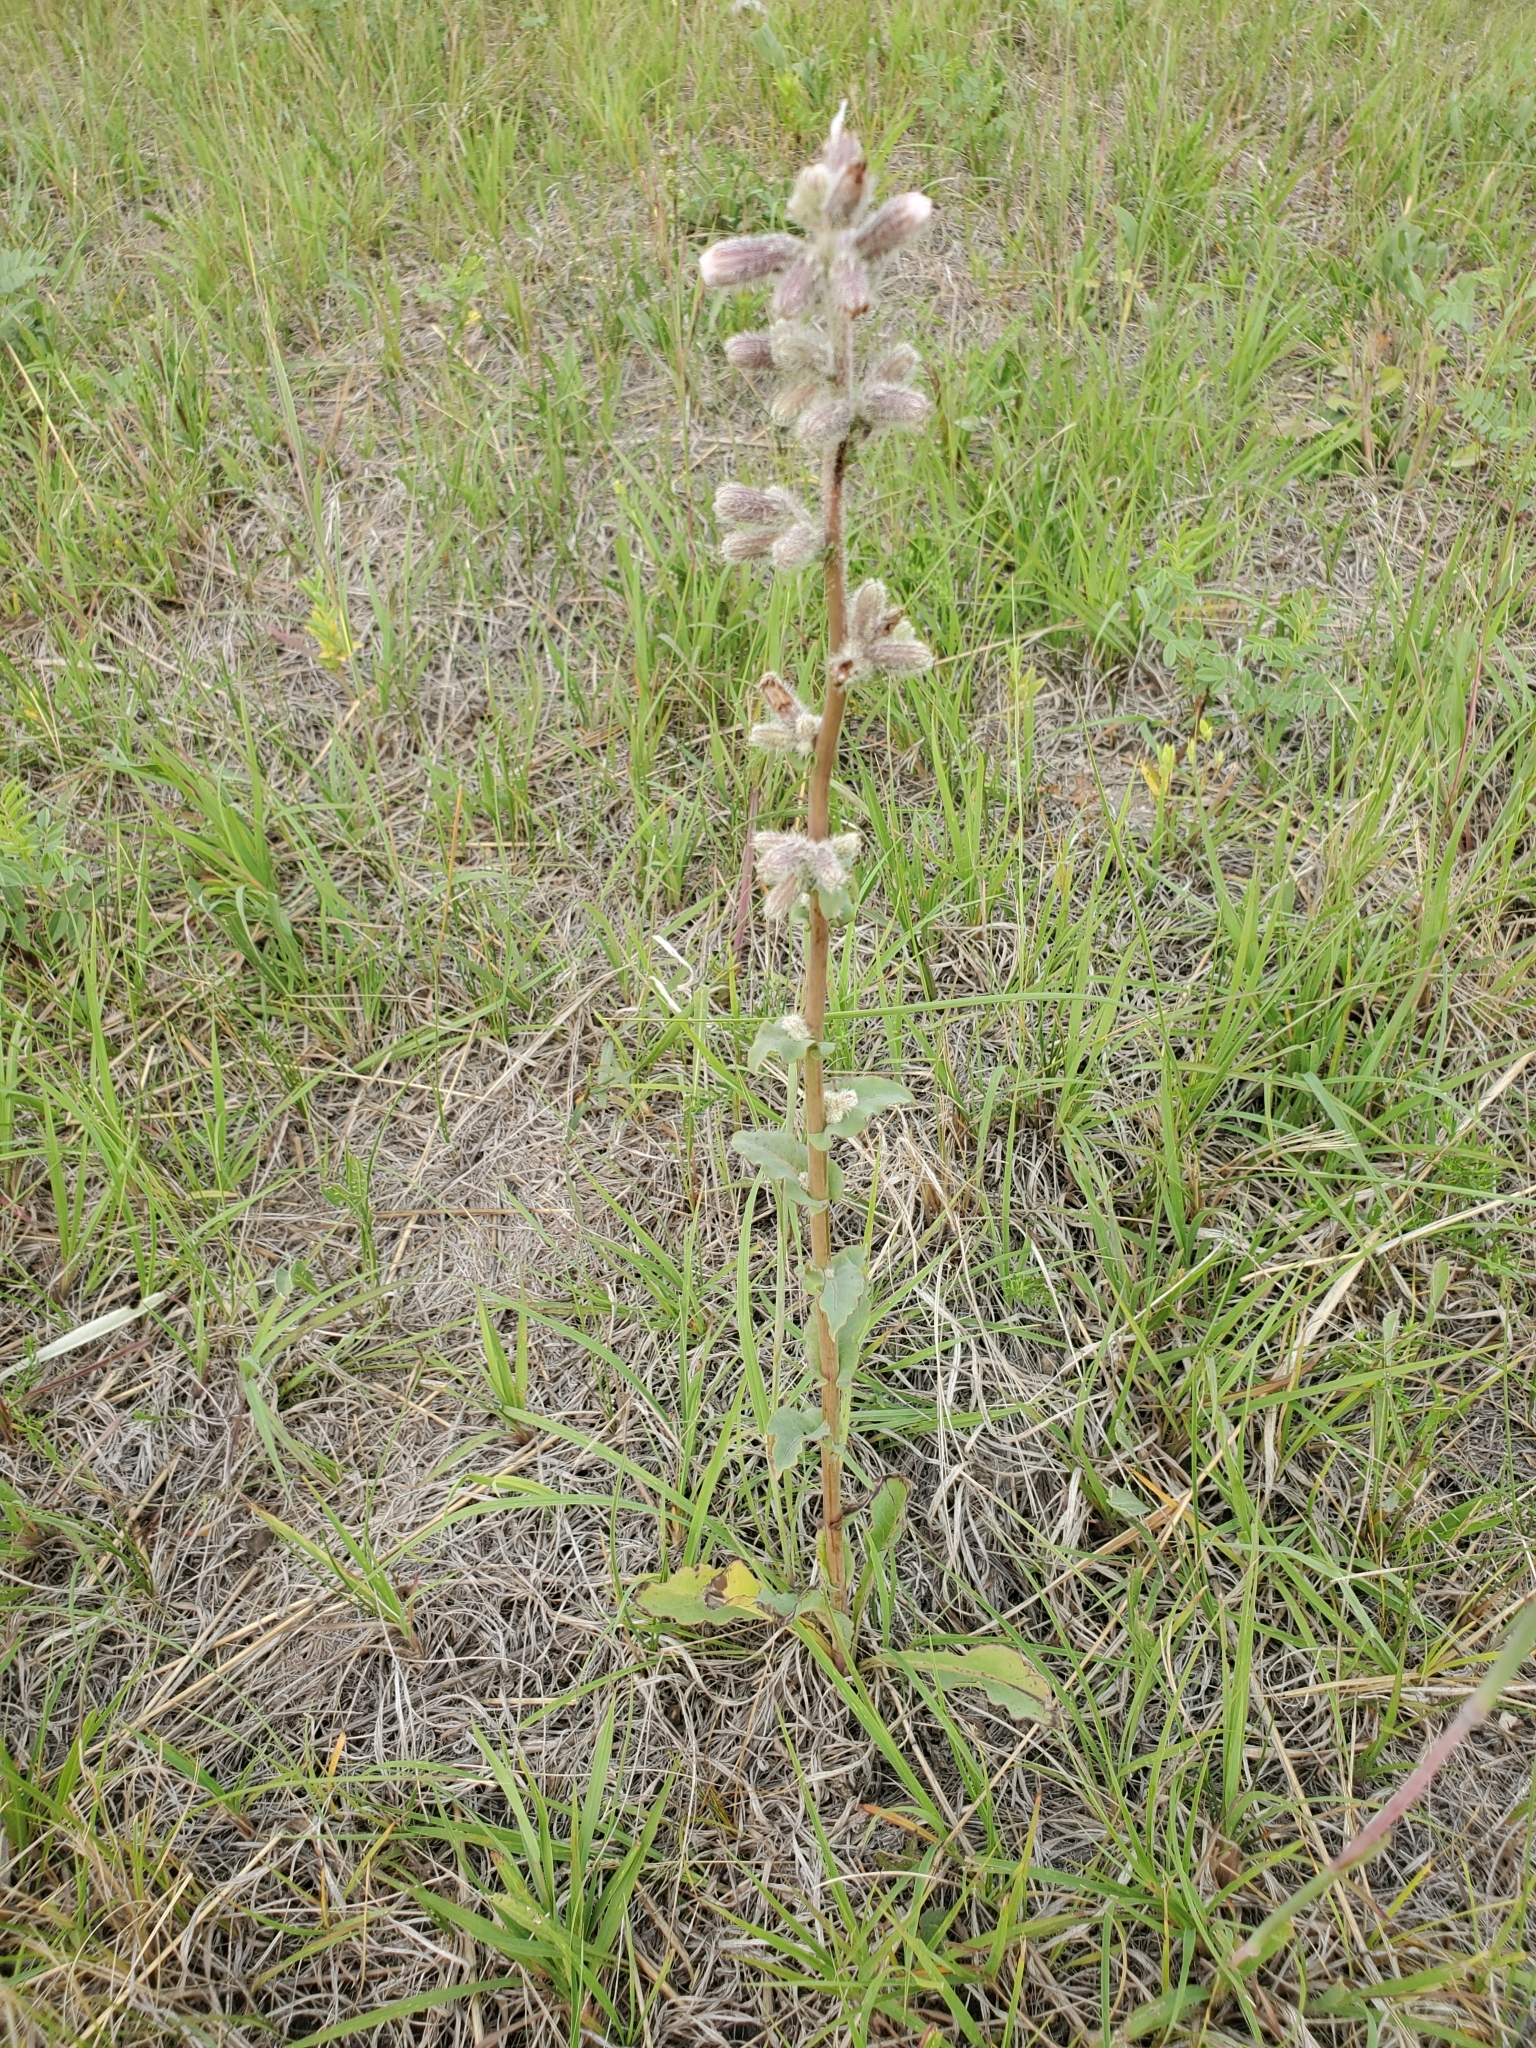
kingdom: Plantae
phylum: Tracheophyta
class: Magnoliopsida
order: Asterales
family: Asteraceae
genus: Nabalus
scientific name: Nabalus racemosus
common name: Glaucous white lettuce
